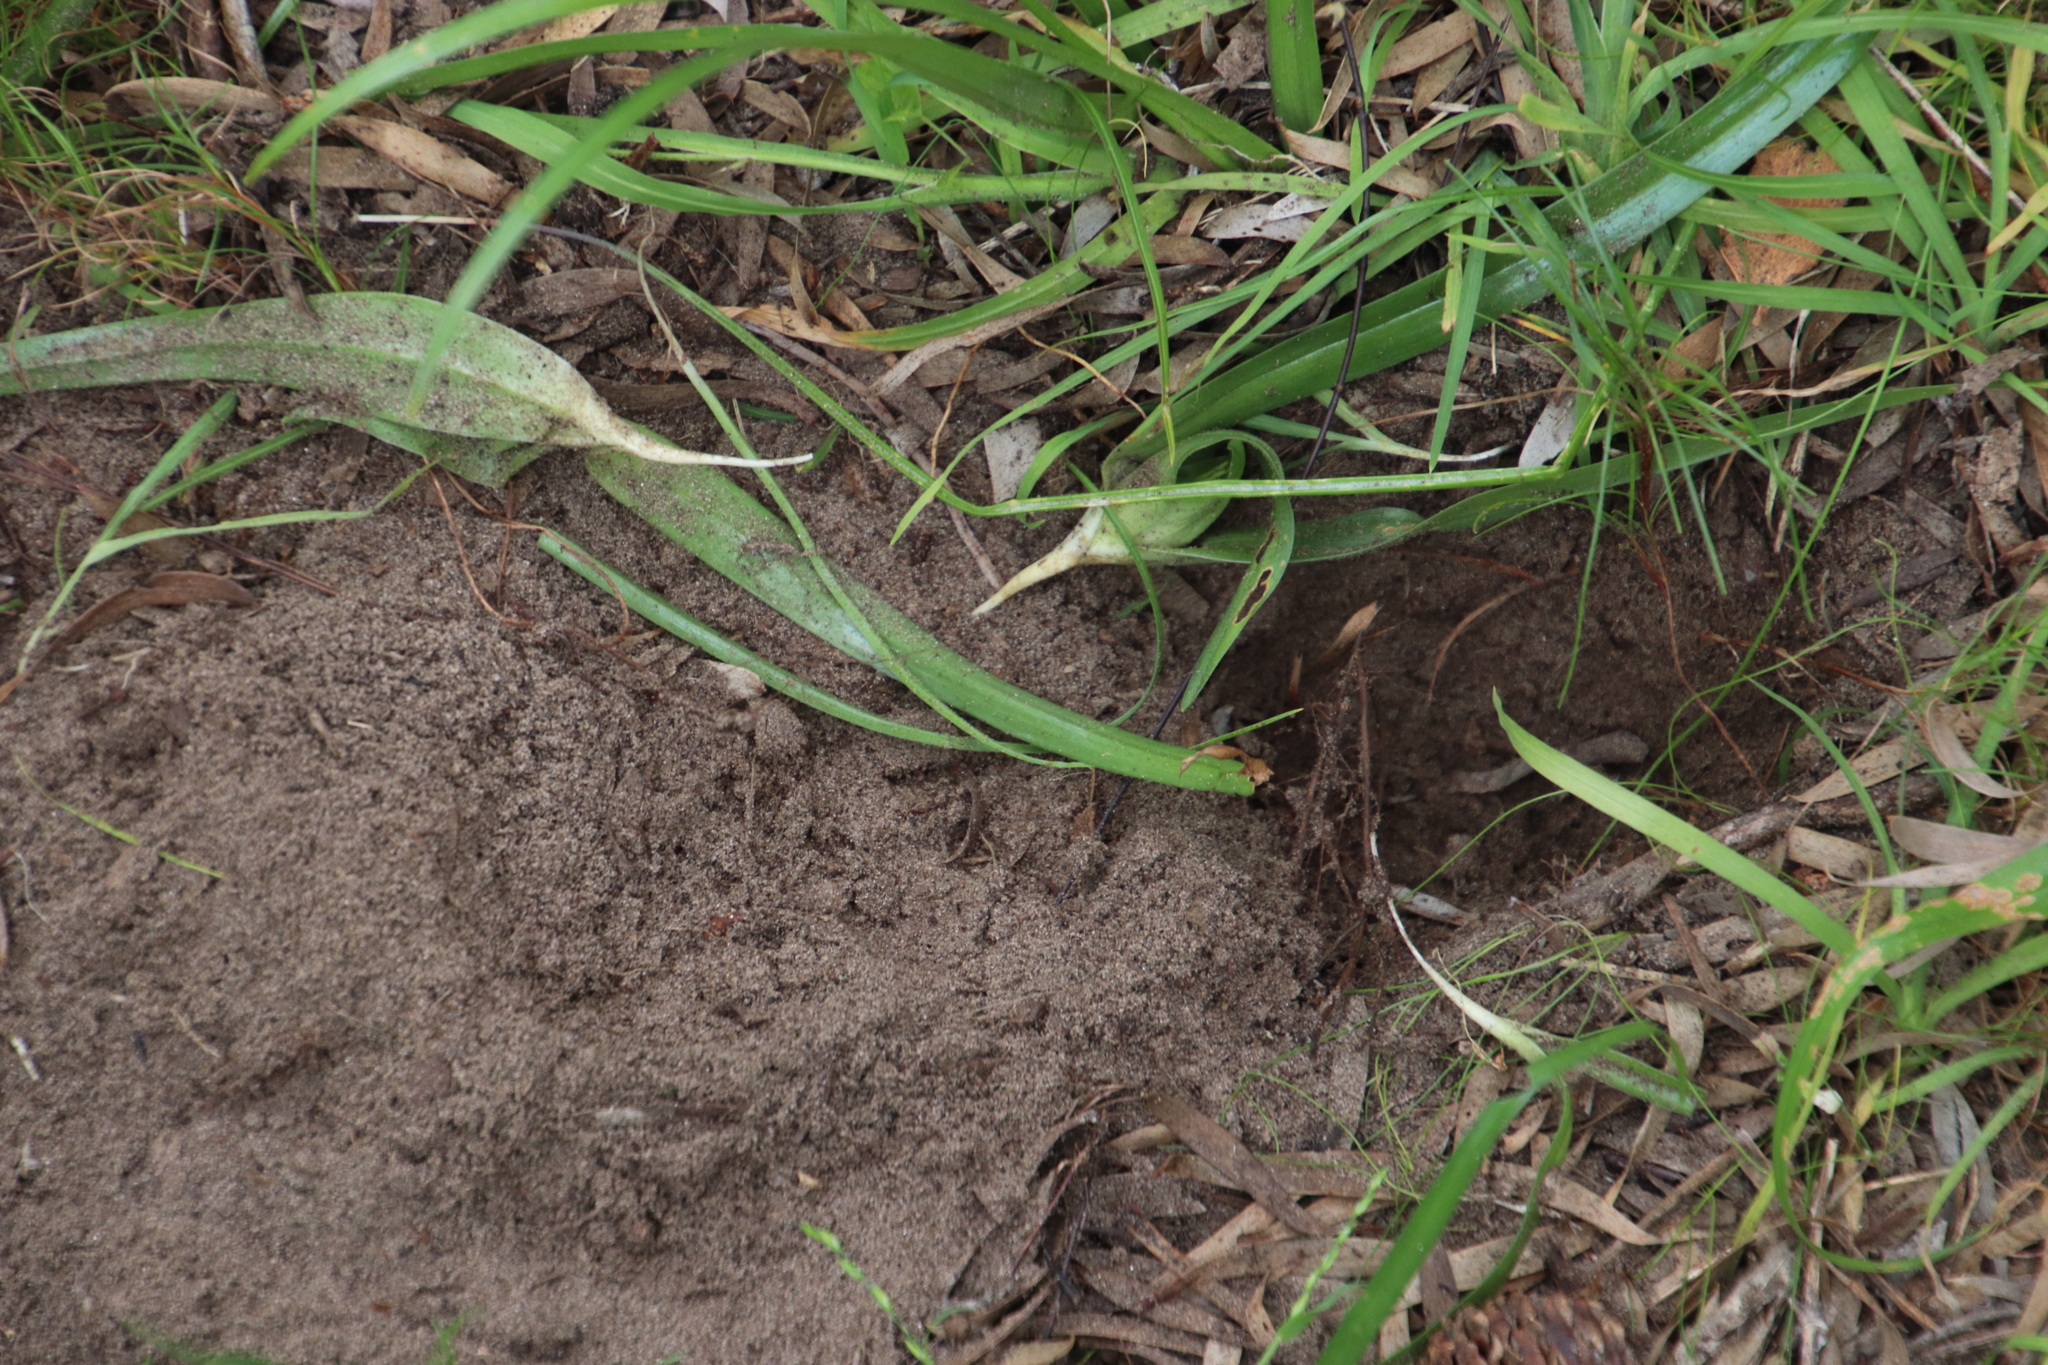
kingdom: Animalia
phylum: Chordata
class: Mammalia
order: Rodentia
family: Hystricidae
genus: Hystrix
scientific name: Hystrix africaeaustralis
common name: Cape porcupine
